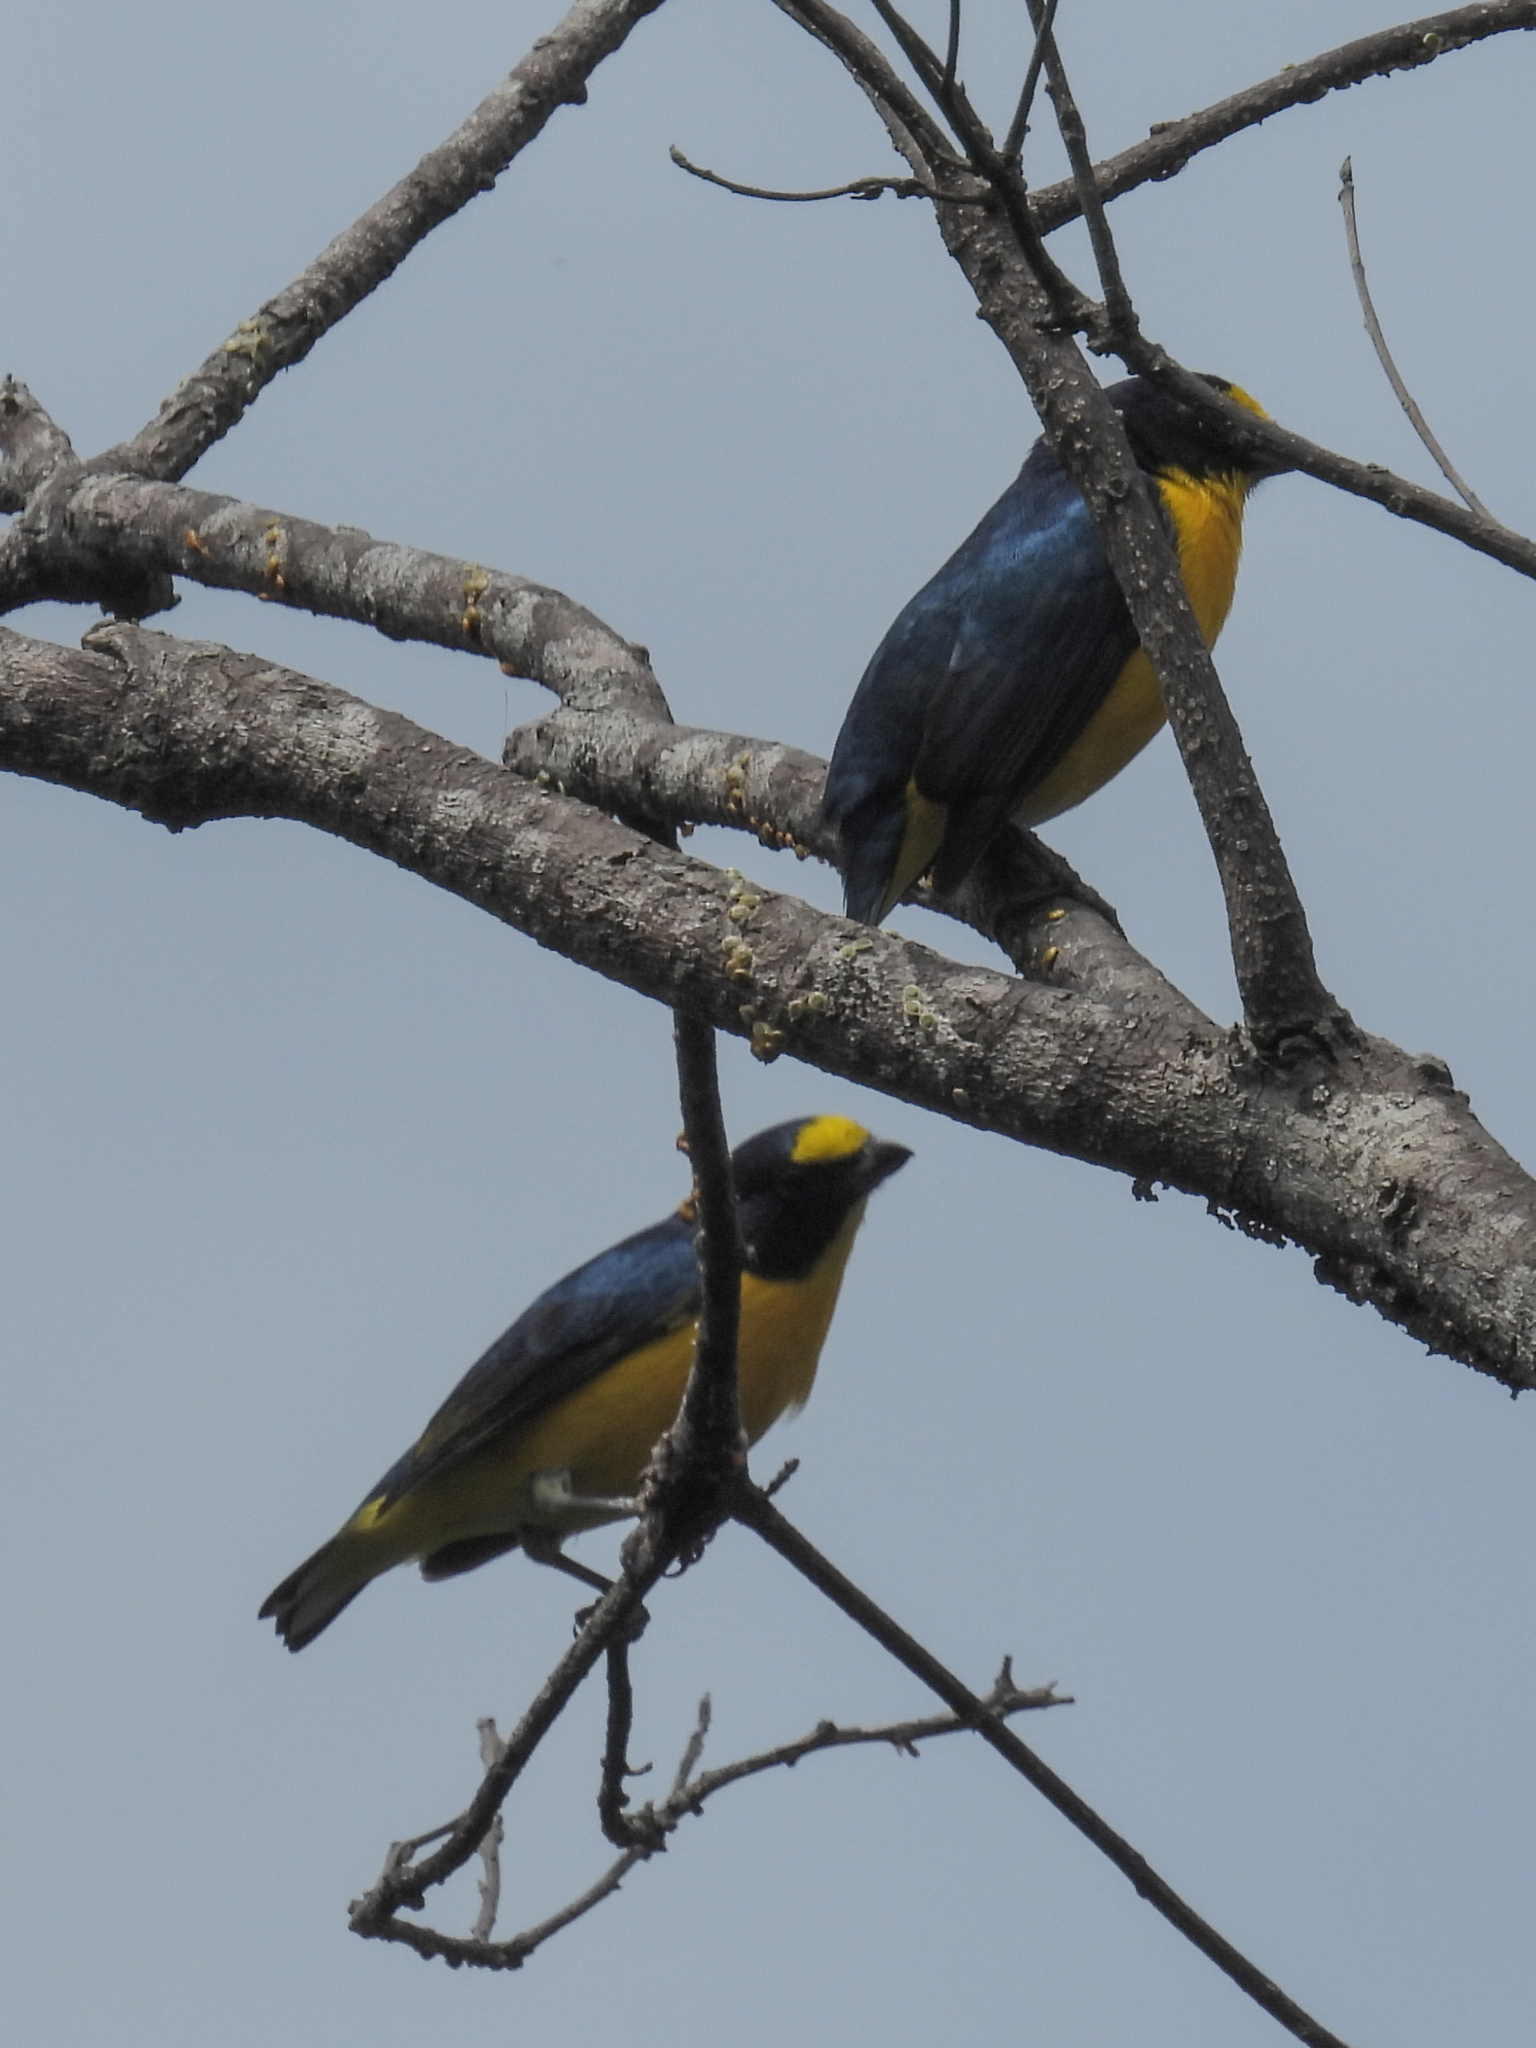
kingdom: Animalia
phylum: Chordata
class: Aves
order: Passeriformes
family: Fringillidae
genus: Euphonia
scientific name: Euphonia hirundinacea
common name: Yellow-throated euphonia
